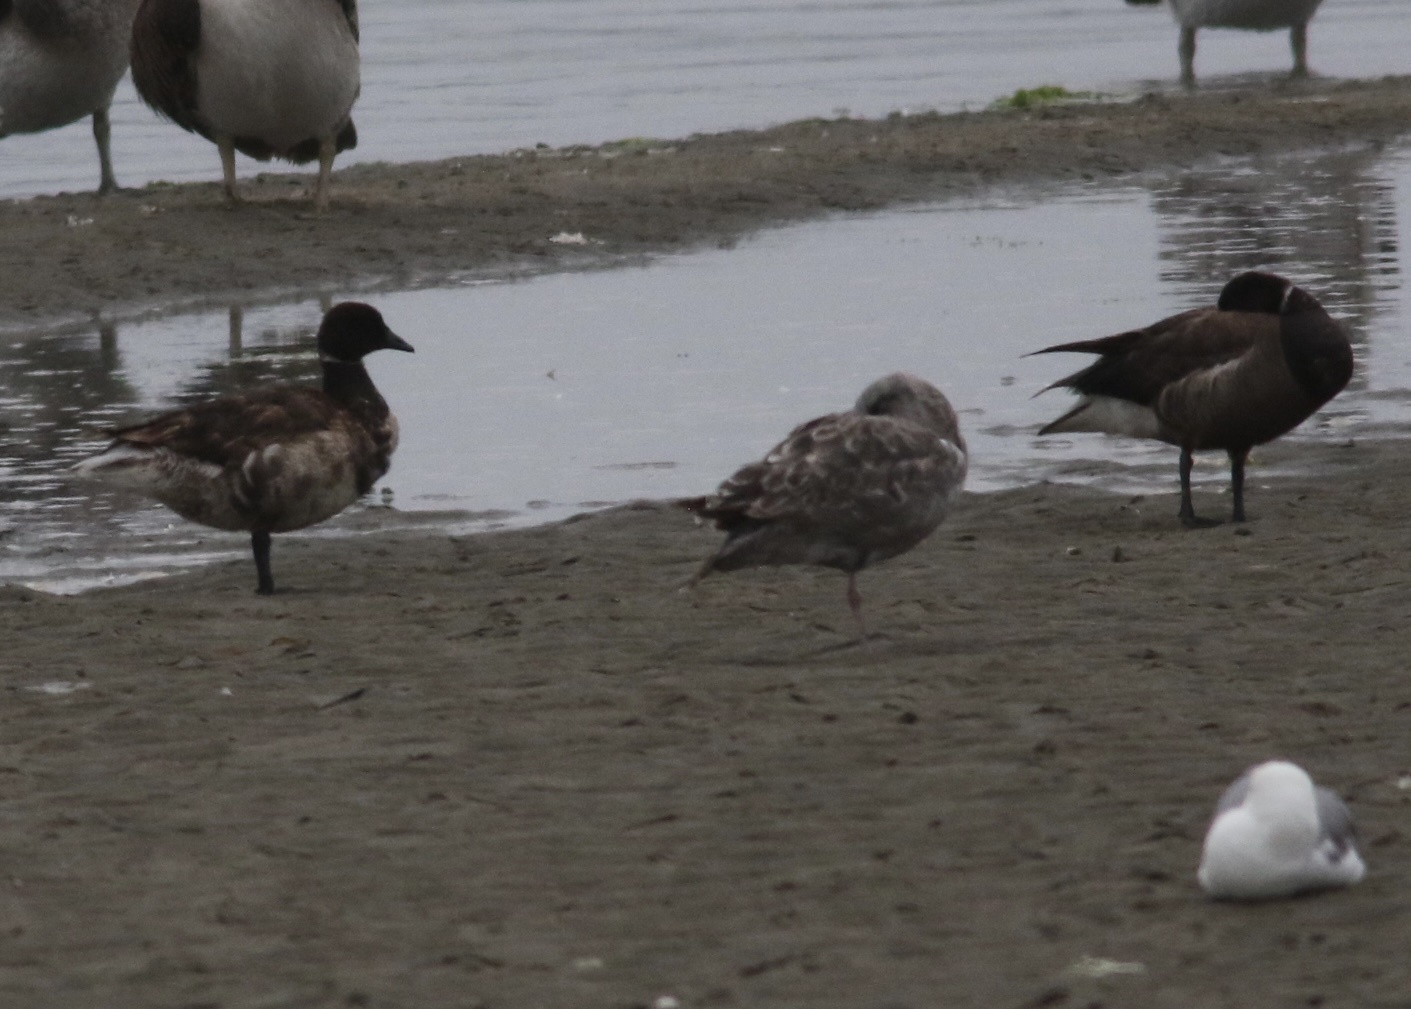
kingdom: Animalia
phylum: Chordata
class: Aves
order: Anseriformes
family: Anatidae
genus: Branta
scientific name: Branta bernicla
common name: Brant goose
